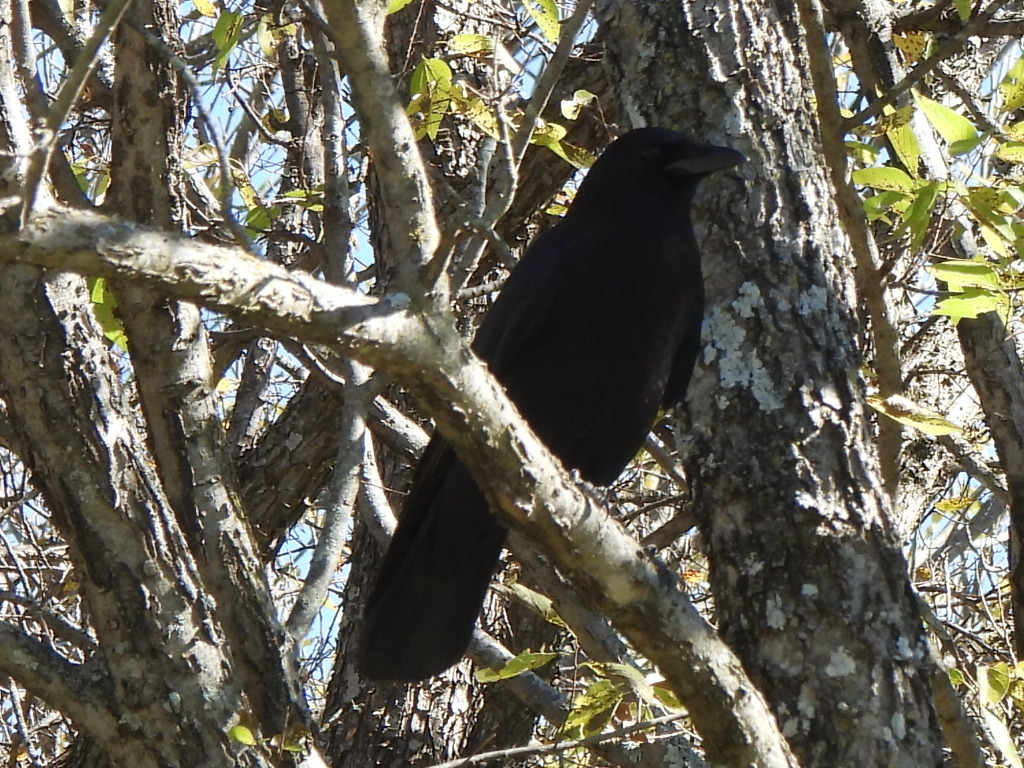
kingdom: Animalia
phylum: Chordata
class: Aves
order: Passeriformes
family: Corvidae
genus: Corvus
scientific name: Corvus brachyrhynchos
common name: American crow
